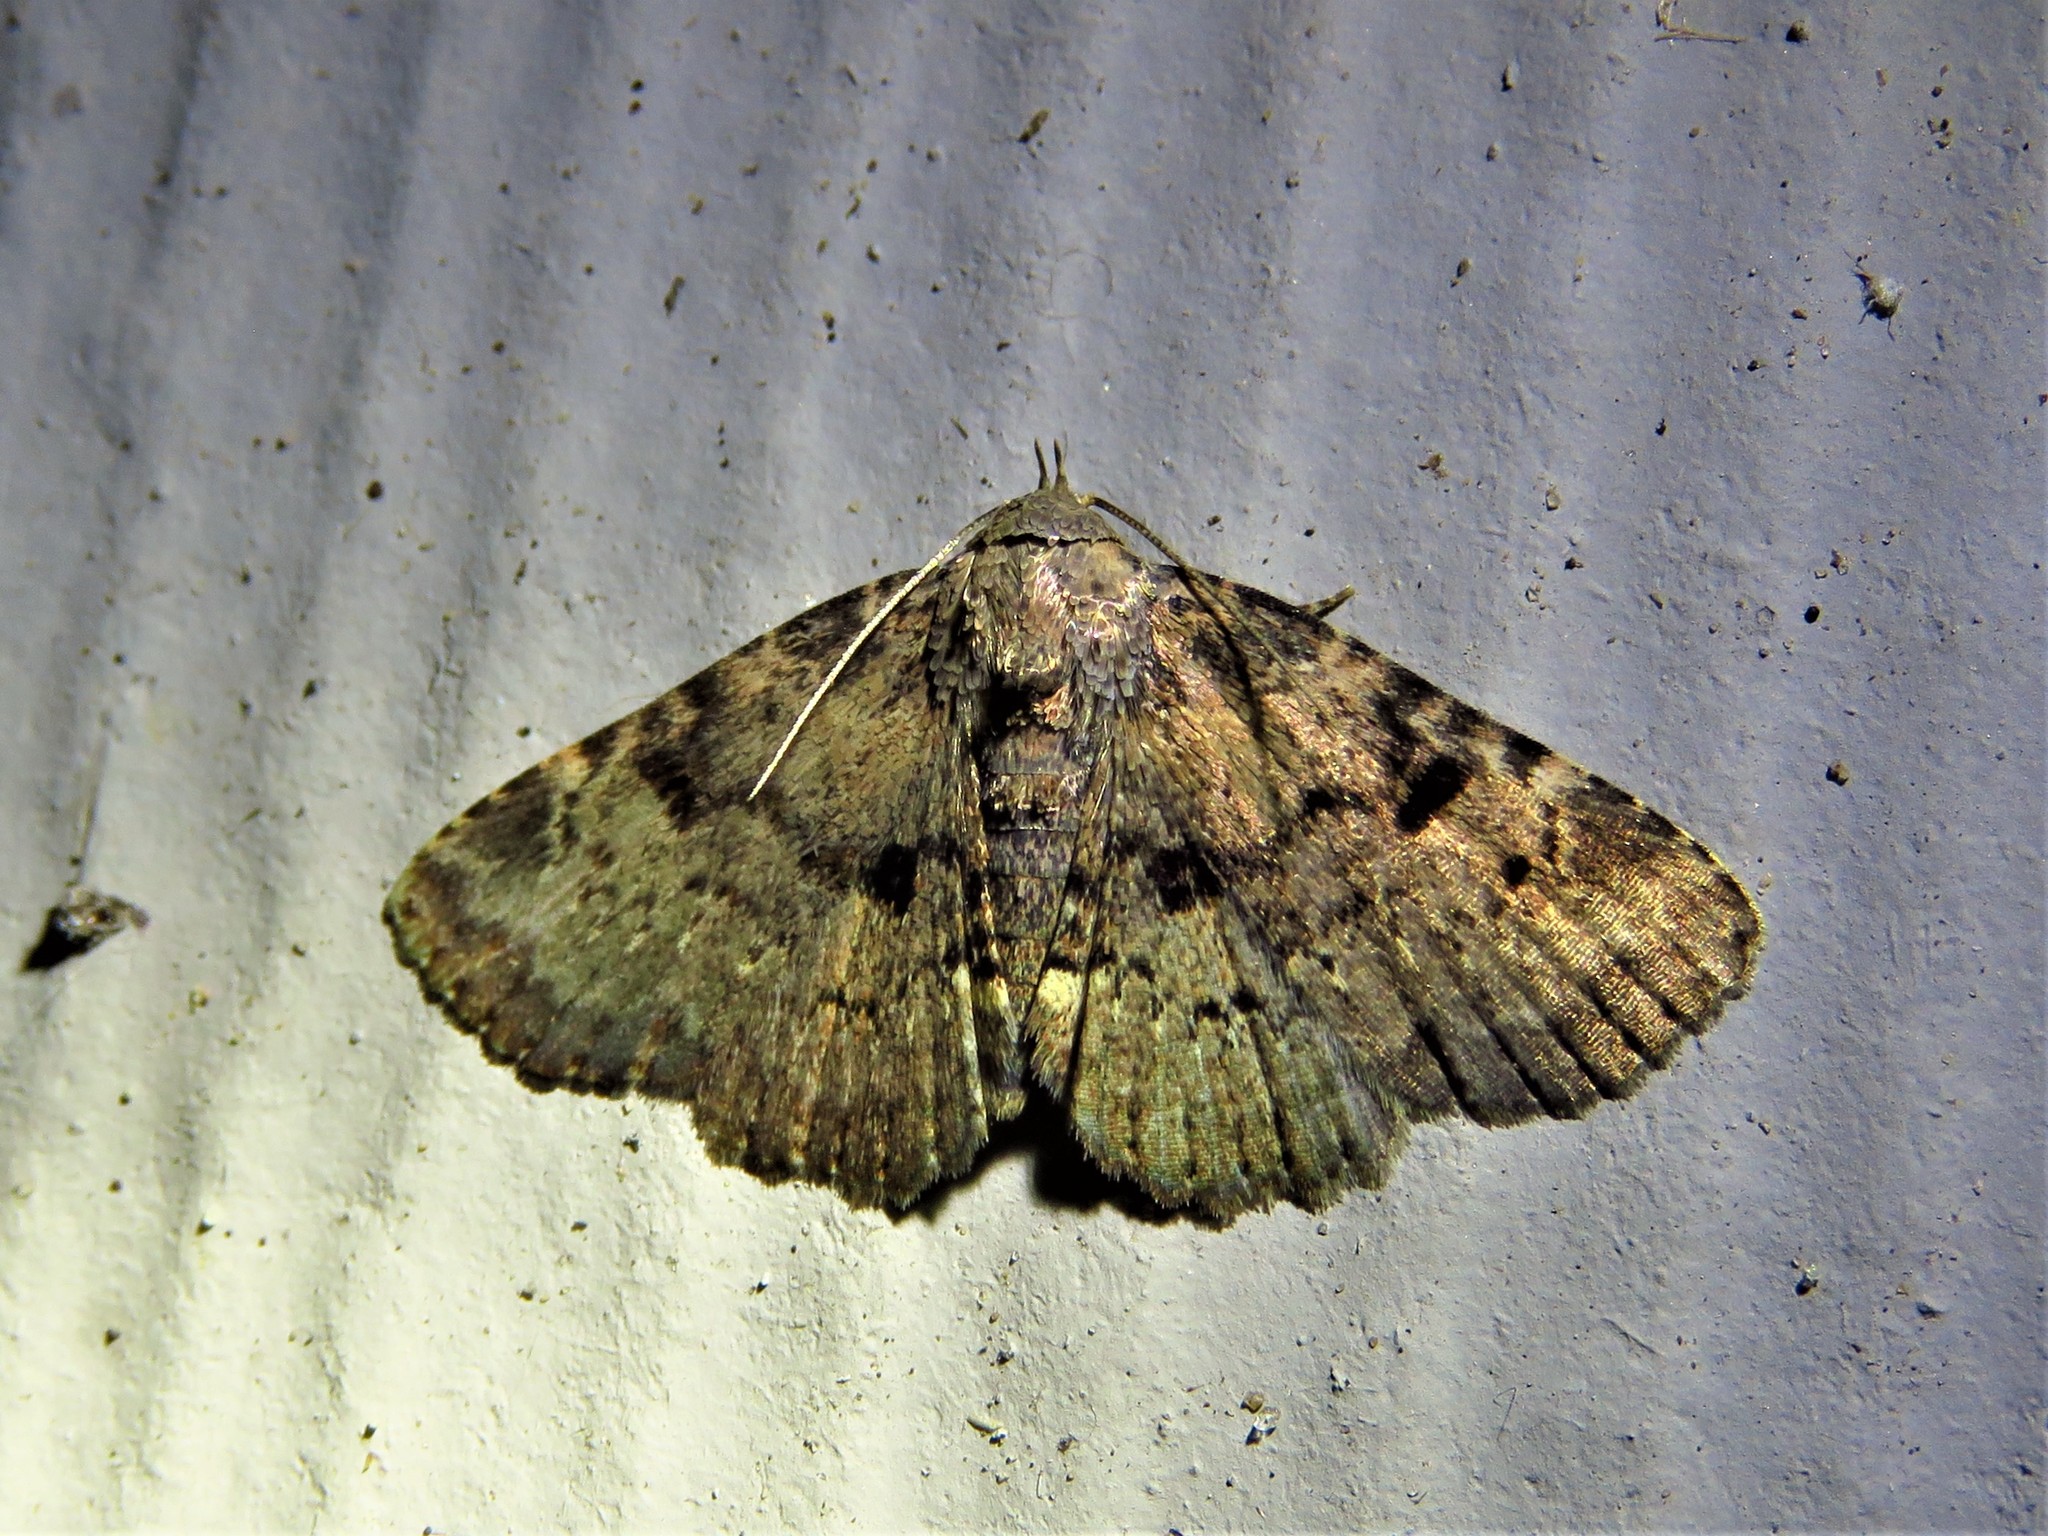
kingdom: Animalia
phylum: Arthropoda
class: Insecta
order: Lepidoptera
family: Erebidae
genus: Metalectra
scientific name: Metalectra quadrisignata
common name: Four-spotted fungus moth
